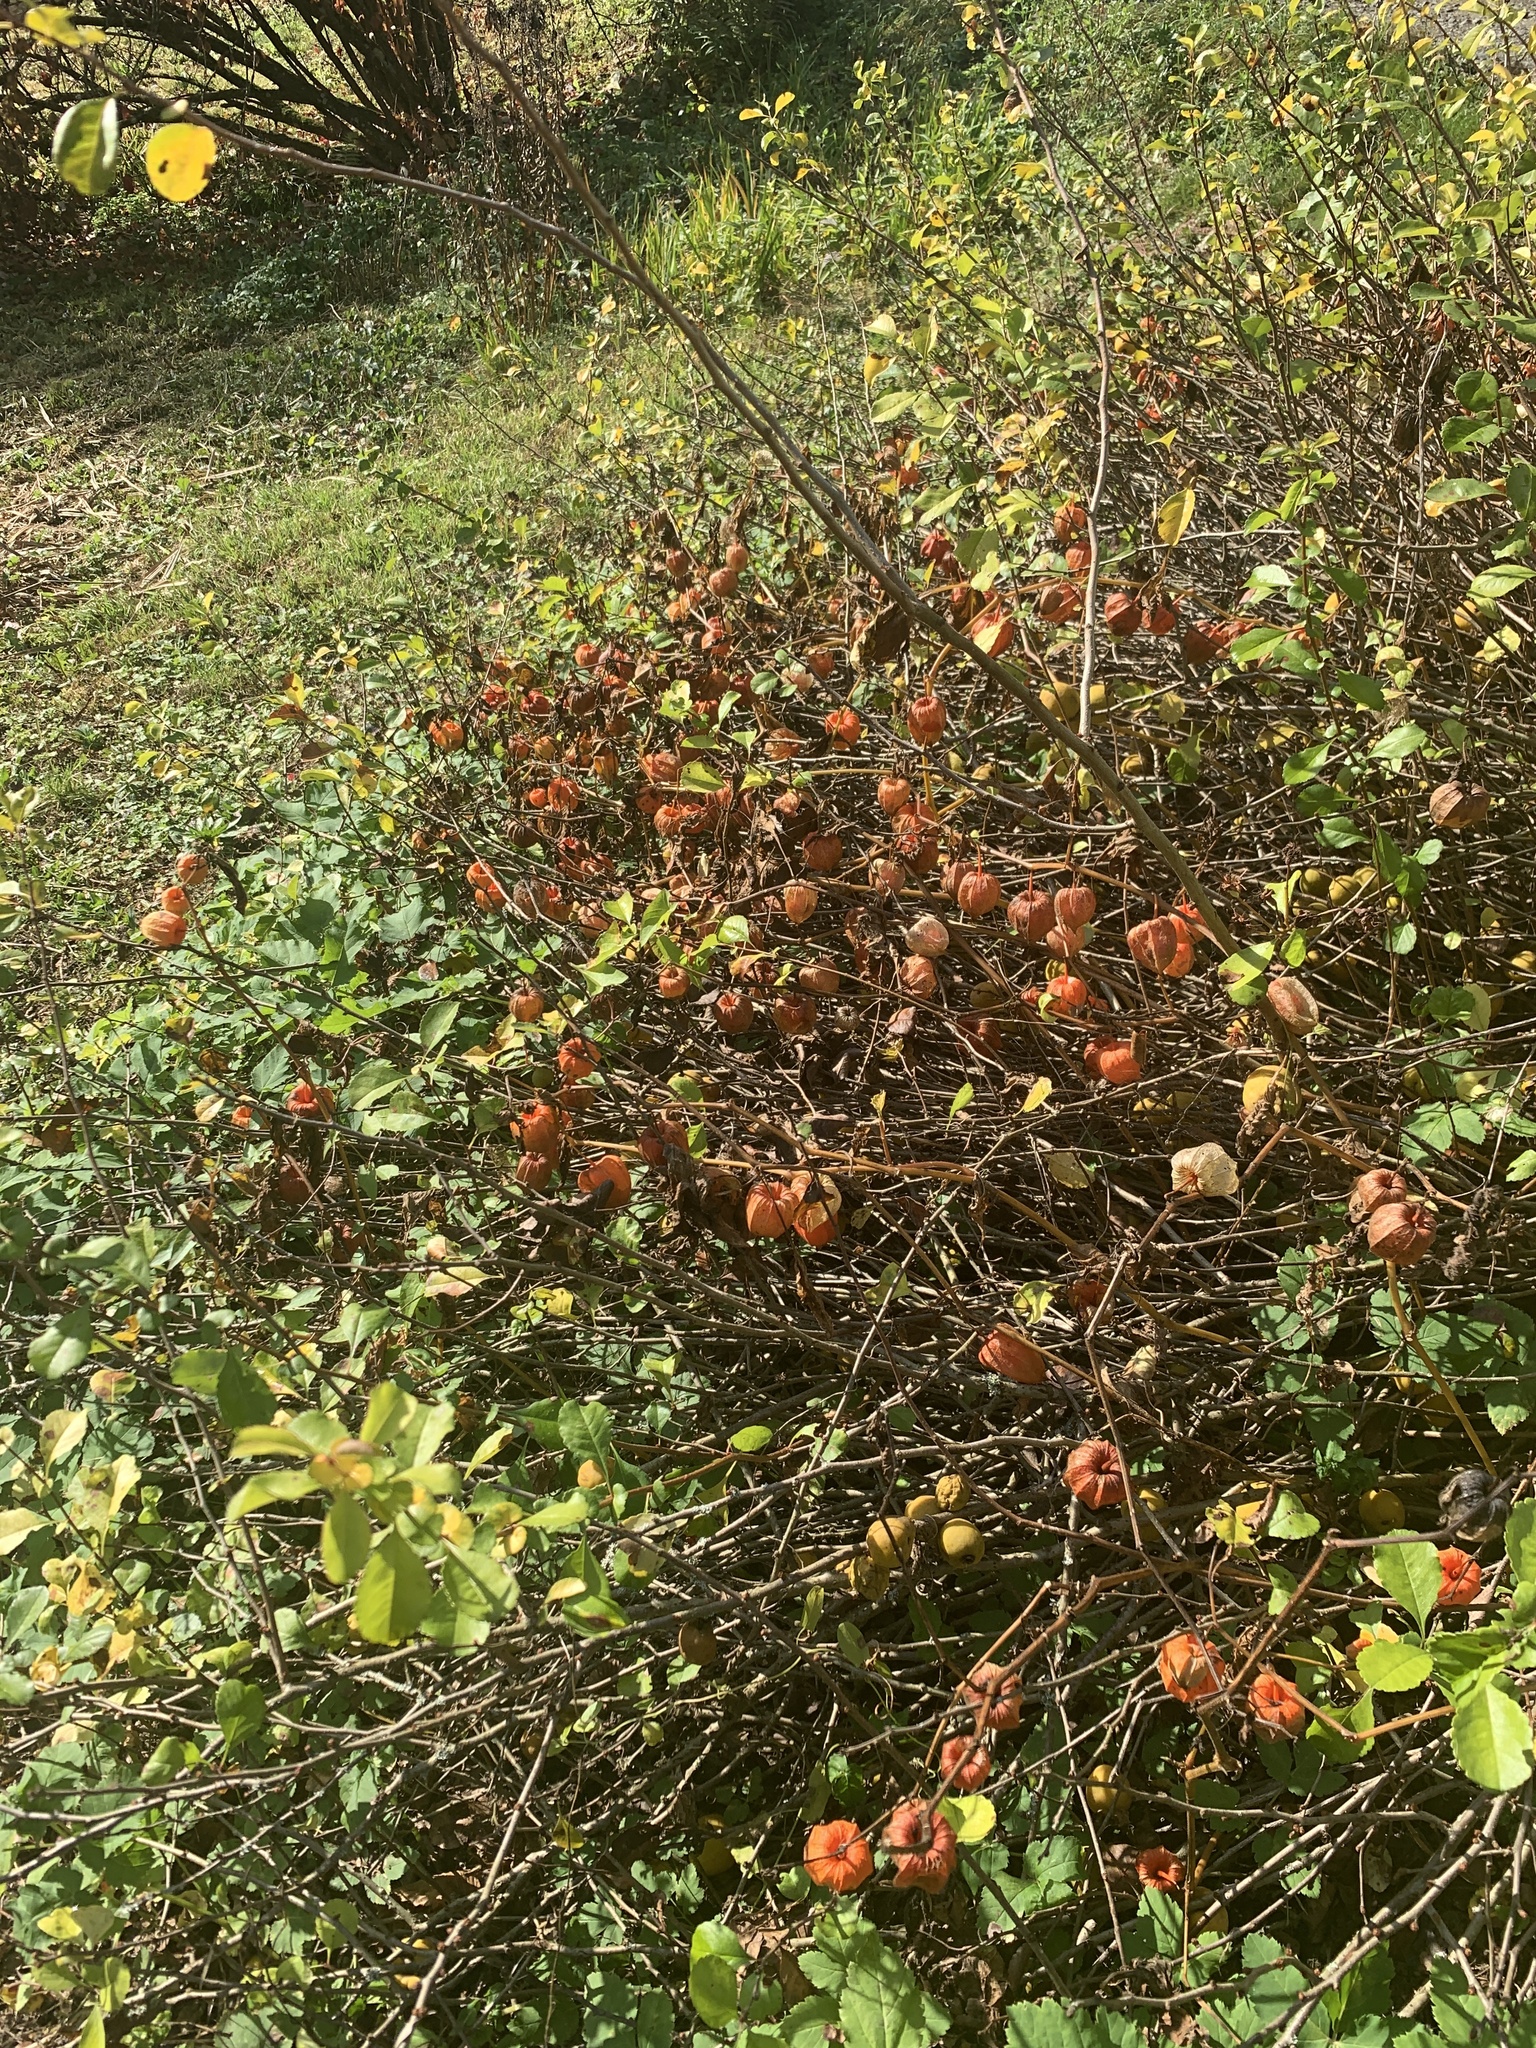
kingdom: Plantae
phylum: Tracheophyta
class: Magnoliopsida
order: Solanales
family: Solanaceae
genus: Alkekengi
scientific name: Alkekengi officinarum
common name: Japanese-lantern
